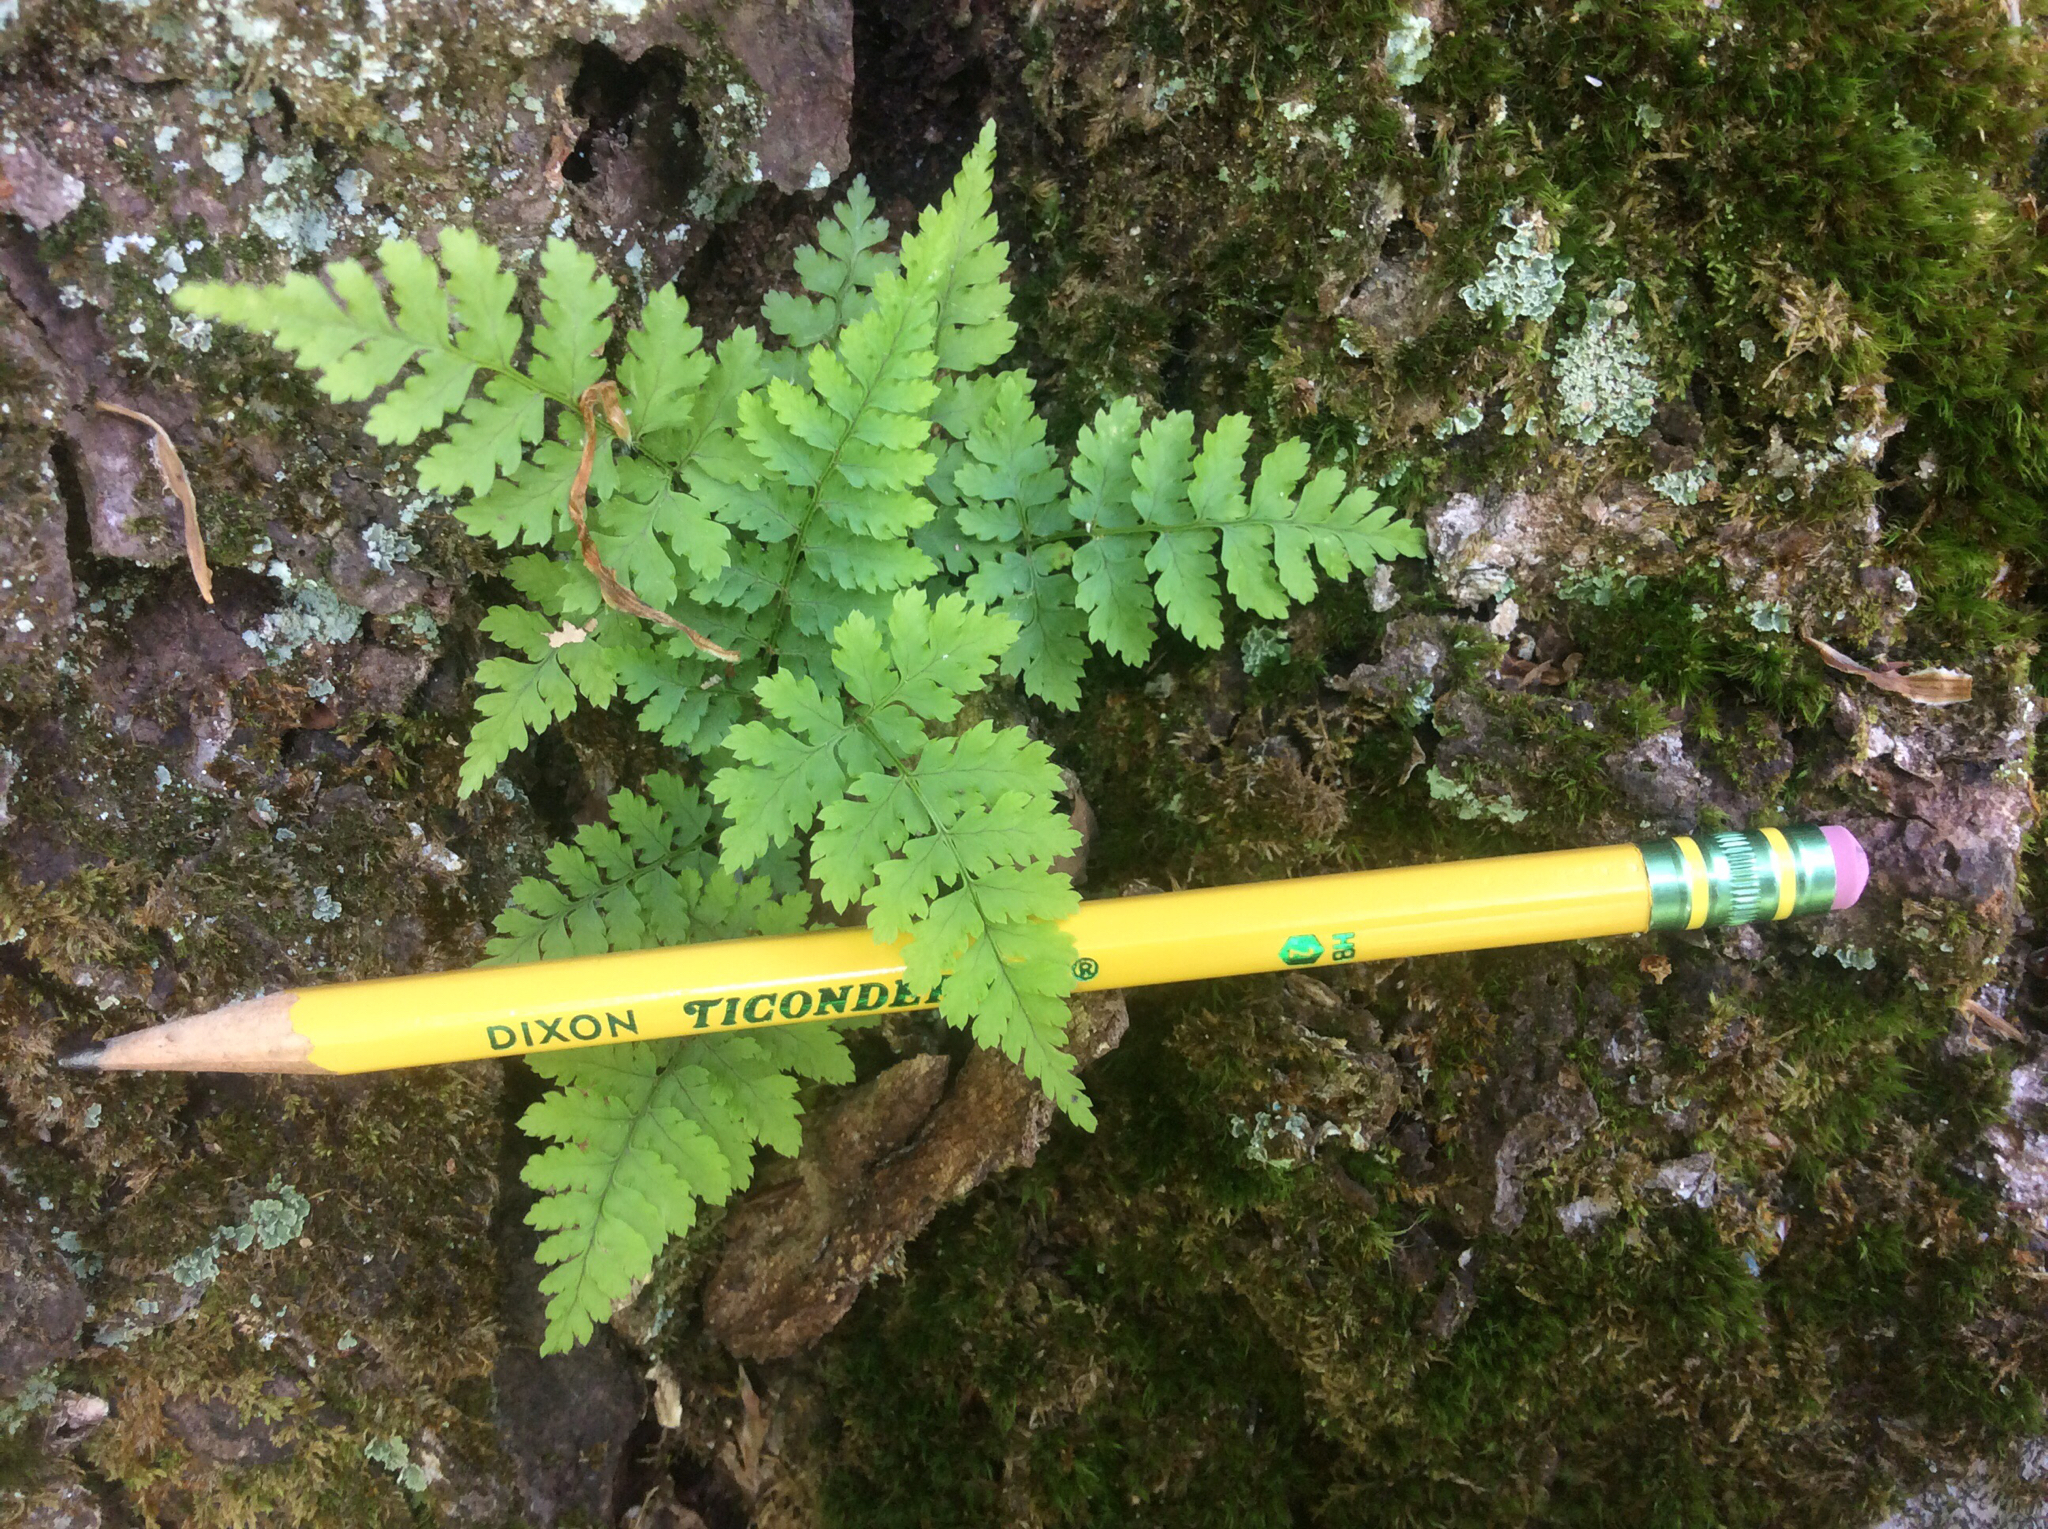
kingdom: Plantae
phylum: Tracheophyta
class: Polypodiopsida
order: Polypodiales
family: Cystopteridaceae
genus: Cystopteris
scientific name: Cystopteris fragilis
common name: Brittle bladder fern
